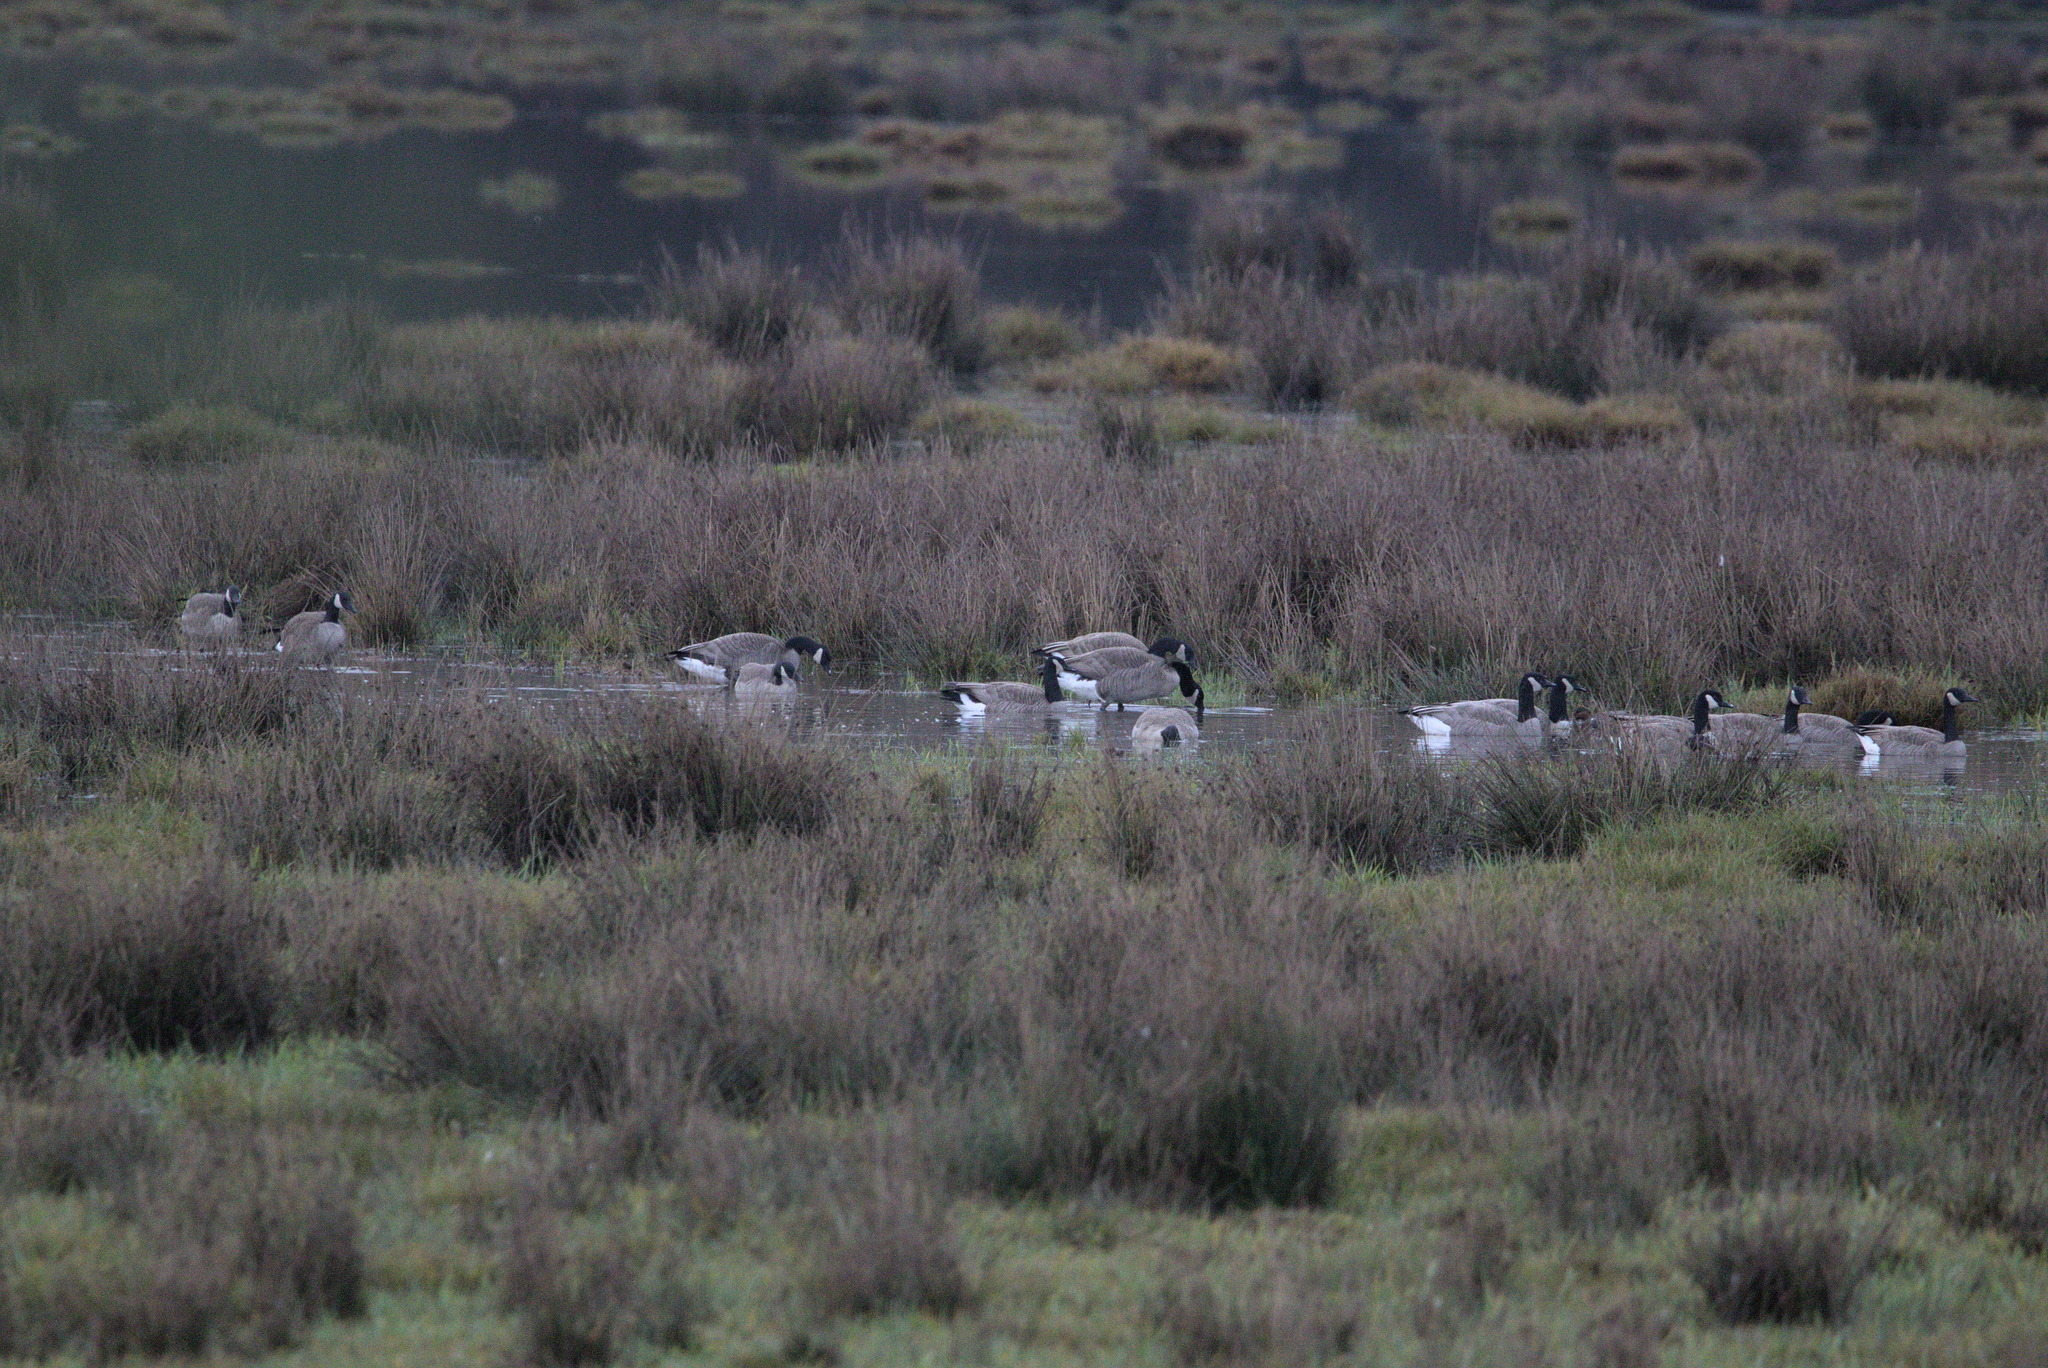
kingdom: Animalia
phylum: Chordata
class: Aves
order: Anseriformes
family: Anatidae
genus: Branta
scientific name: Branta canadensis
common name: Canada goose
